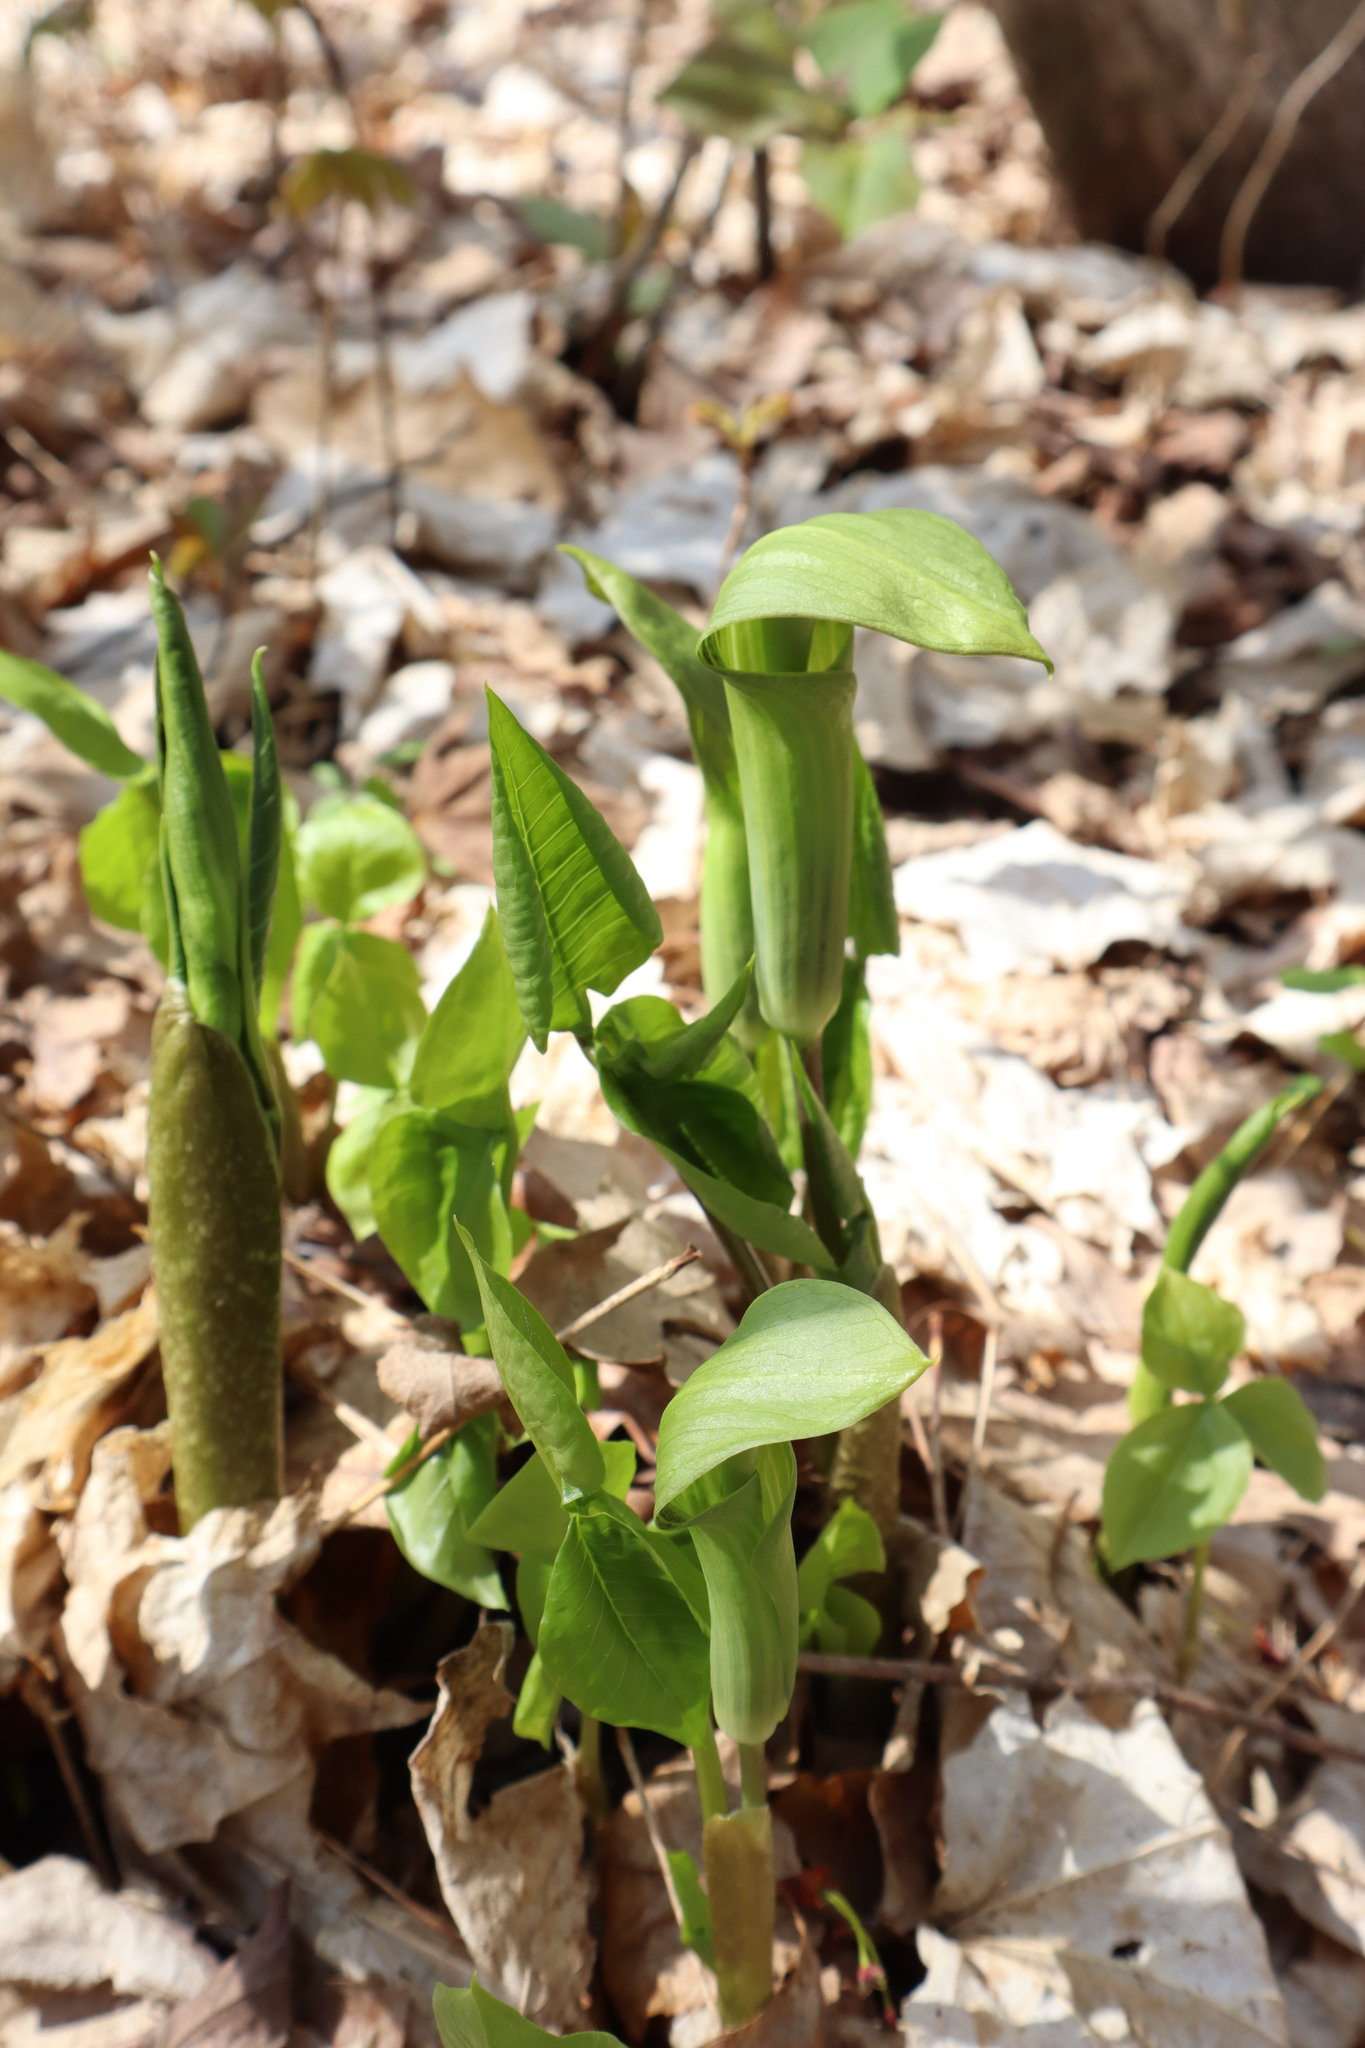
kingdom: Plantae
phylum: Tracheophyta
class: Liliopsida
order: Alismatales
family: Araceae
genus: Arisaema
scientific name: Arisaema triphyllum
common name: Jack-in-the-pulpit
